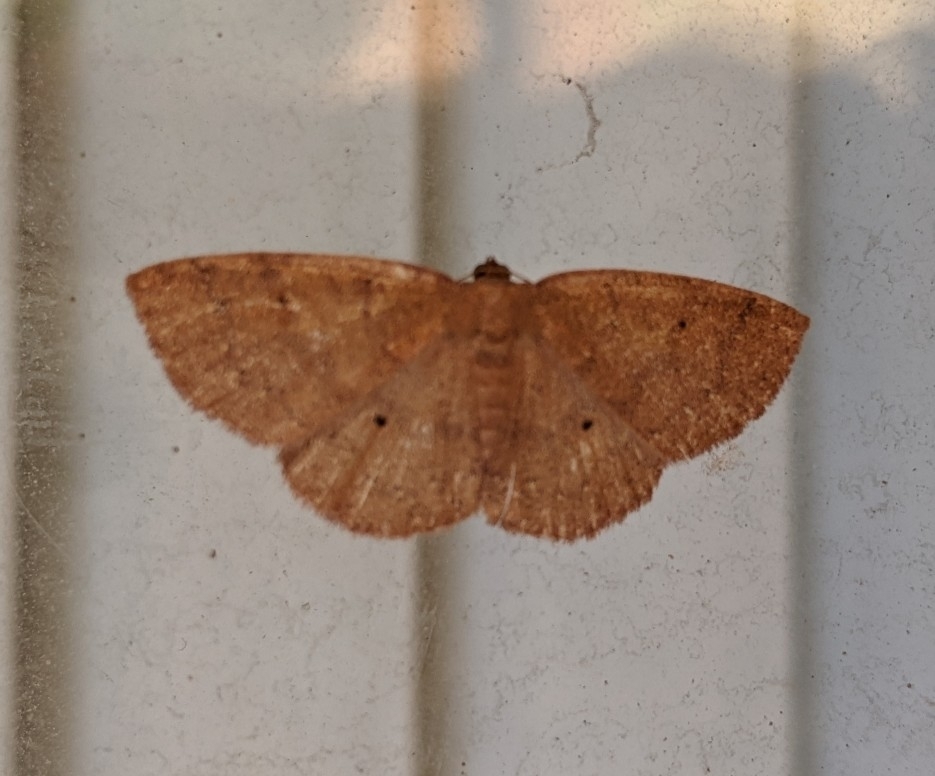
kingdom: Animalia
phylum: Arthropoda
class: Insecta
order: Lepidoptera
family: Geometridae
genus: Ilexia
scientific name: Ilexia intractata
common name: Black-dotted ruddy moth
